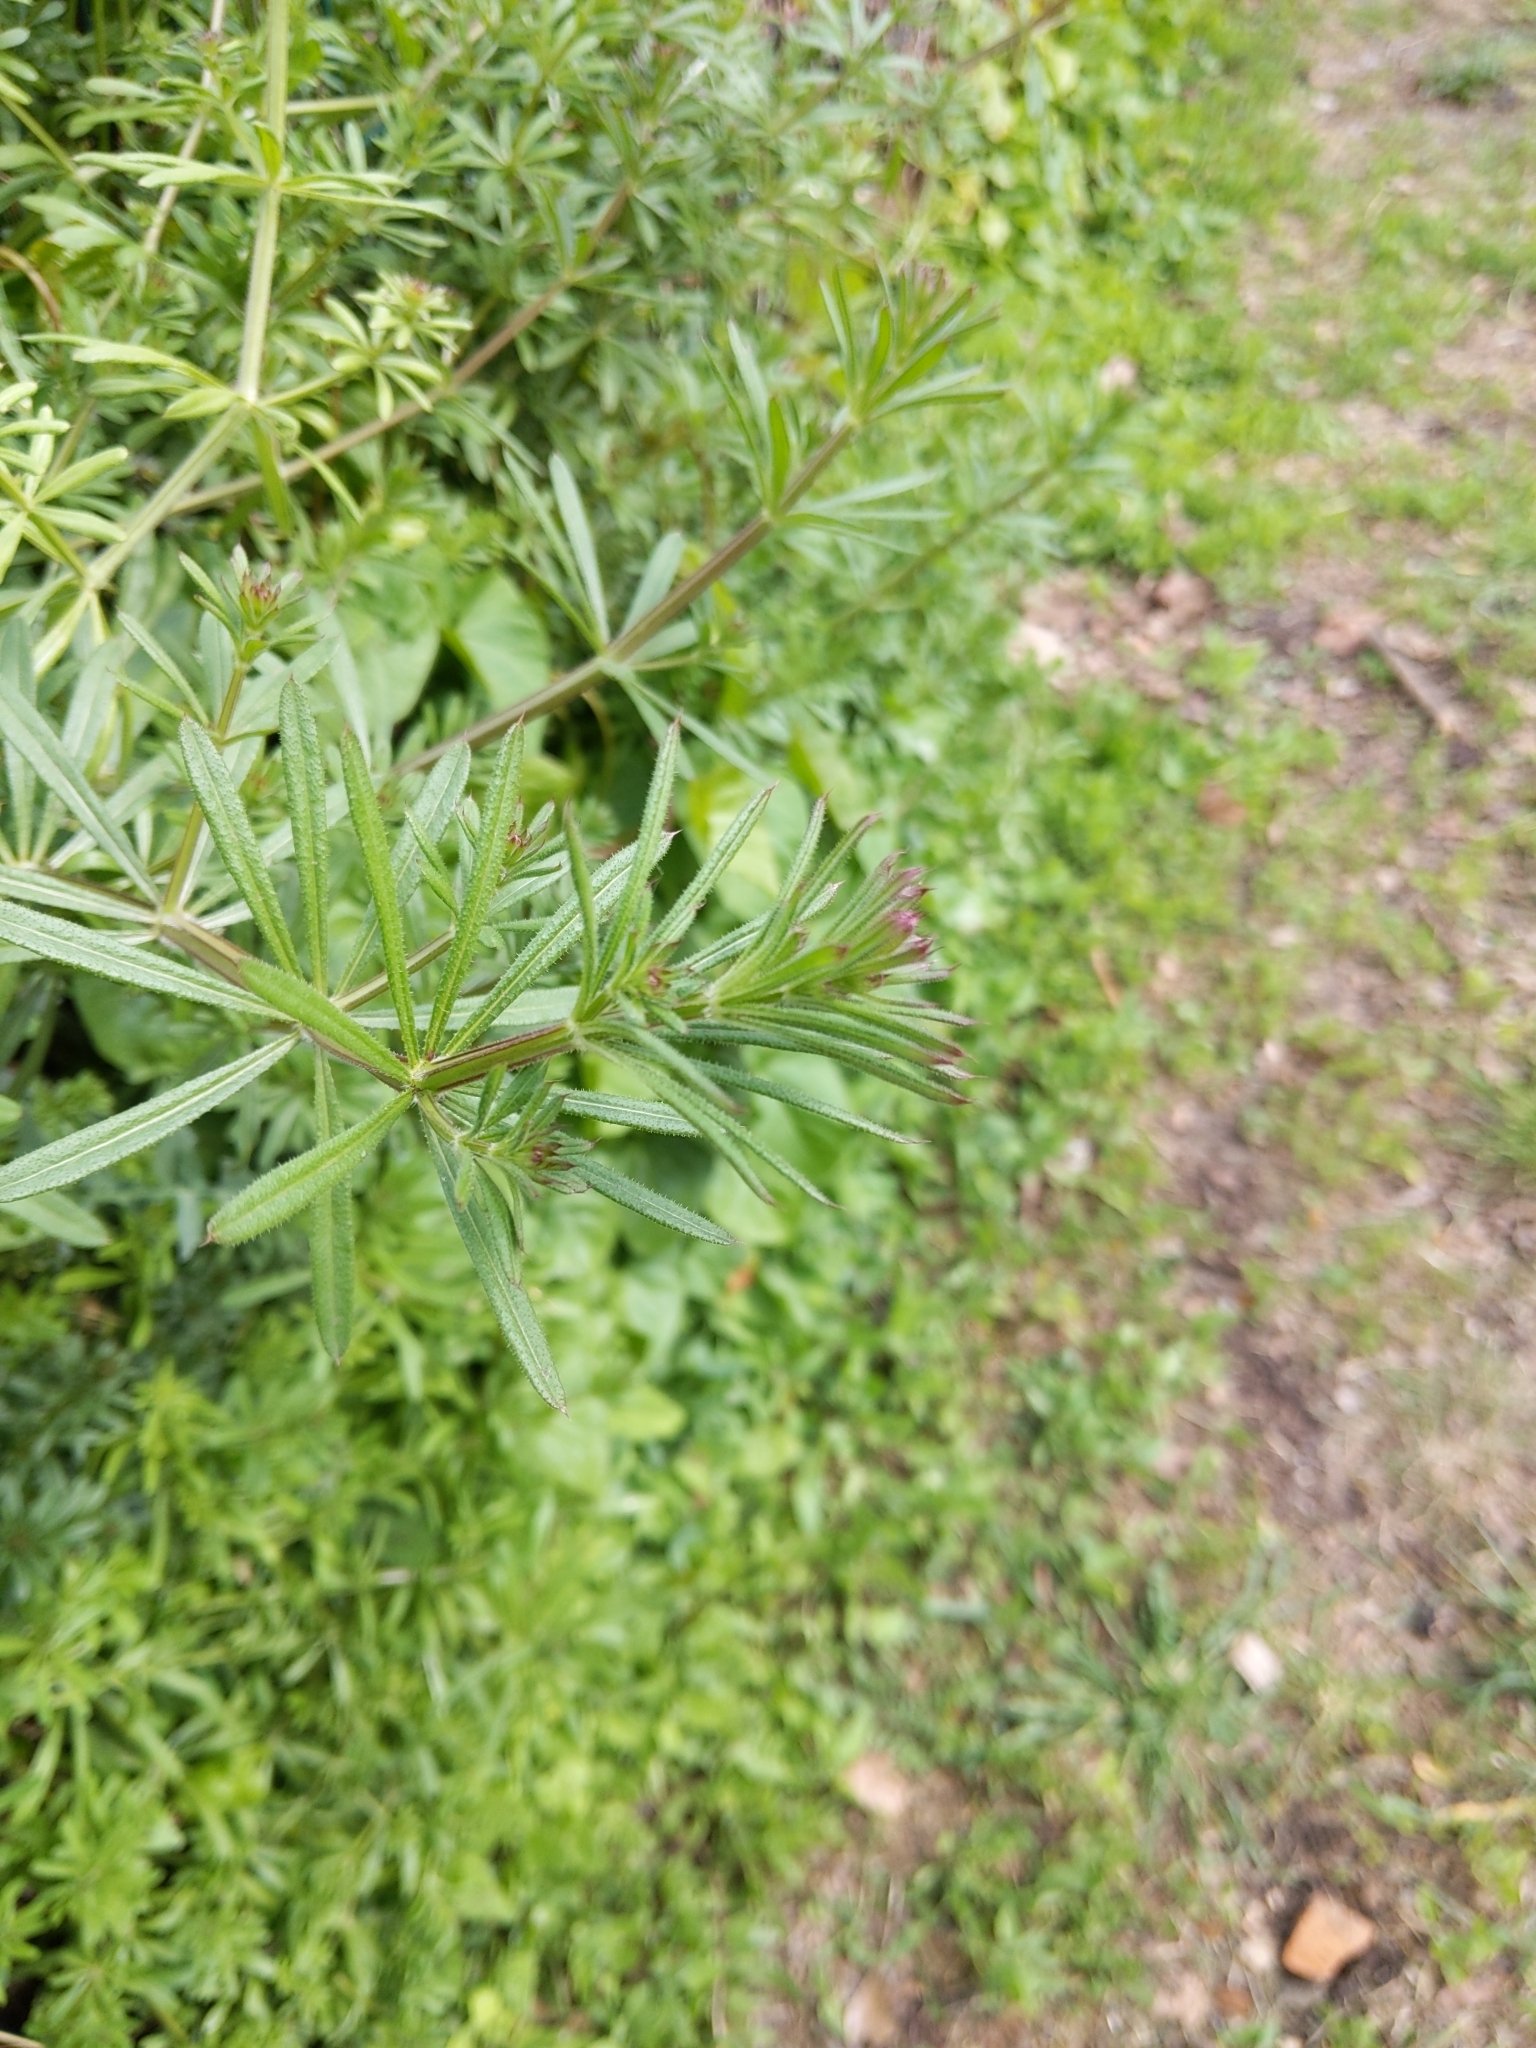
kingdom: Plantae
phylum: Tracheophyta
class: Magnoliopsida
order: Gentianales
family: Rubiaceae
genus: Galium
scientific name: Galium aparine
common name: Cleavers
